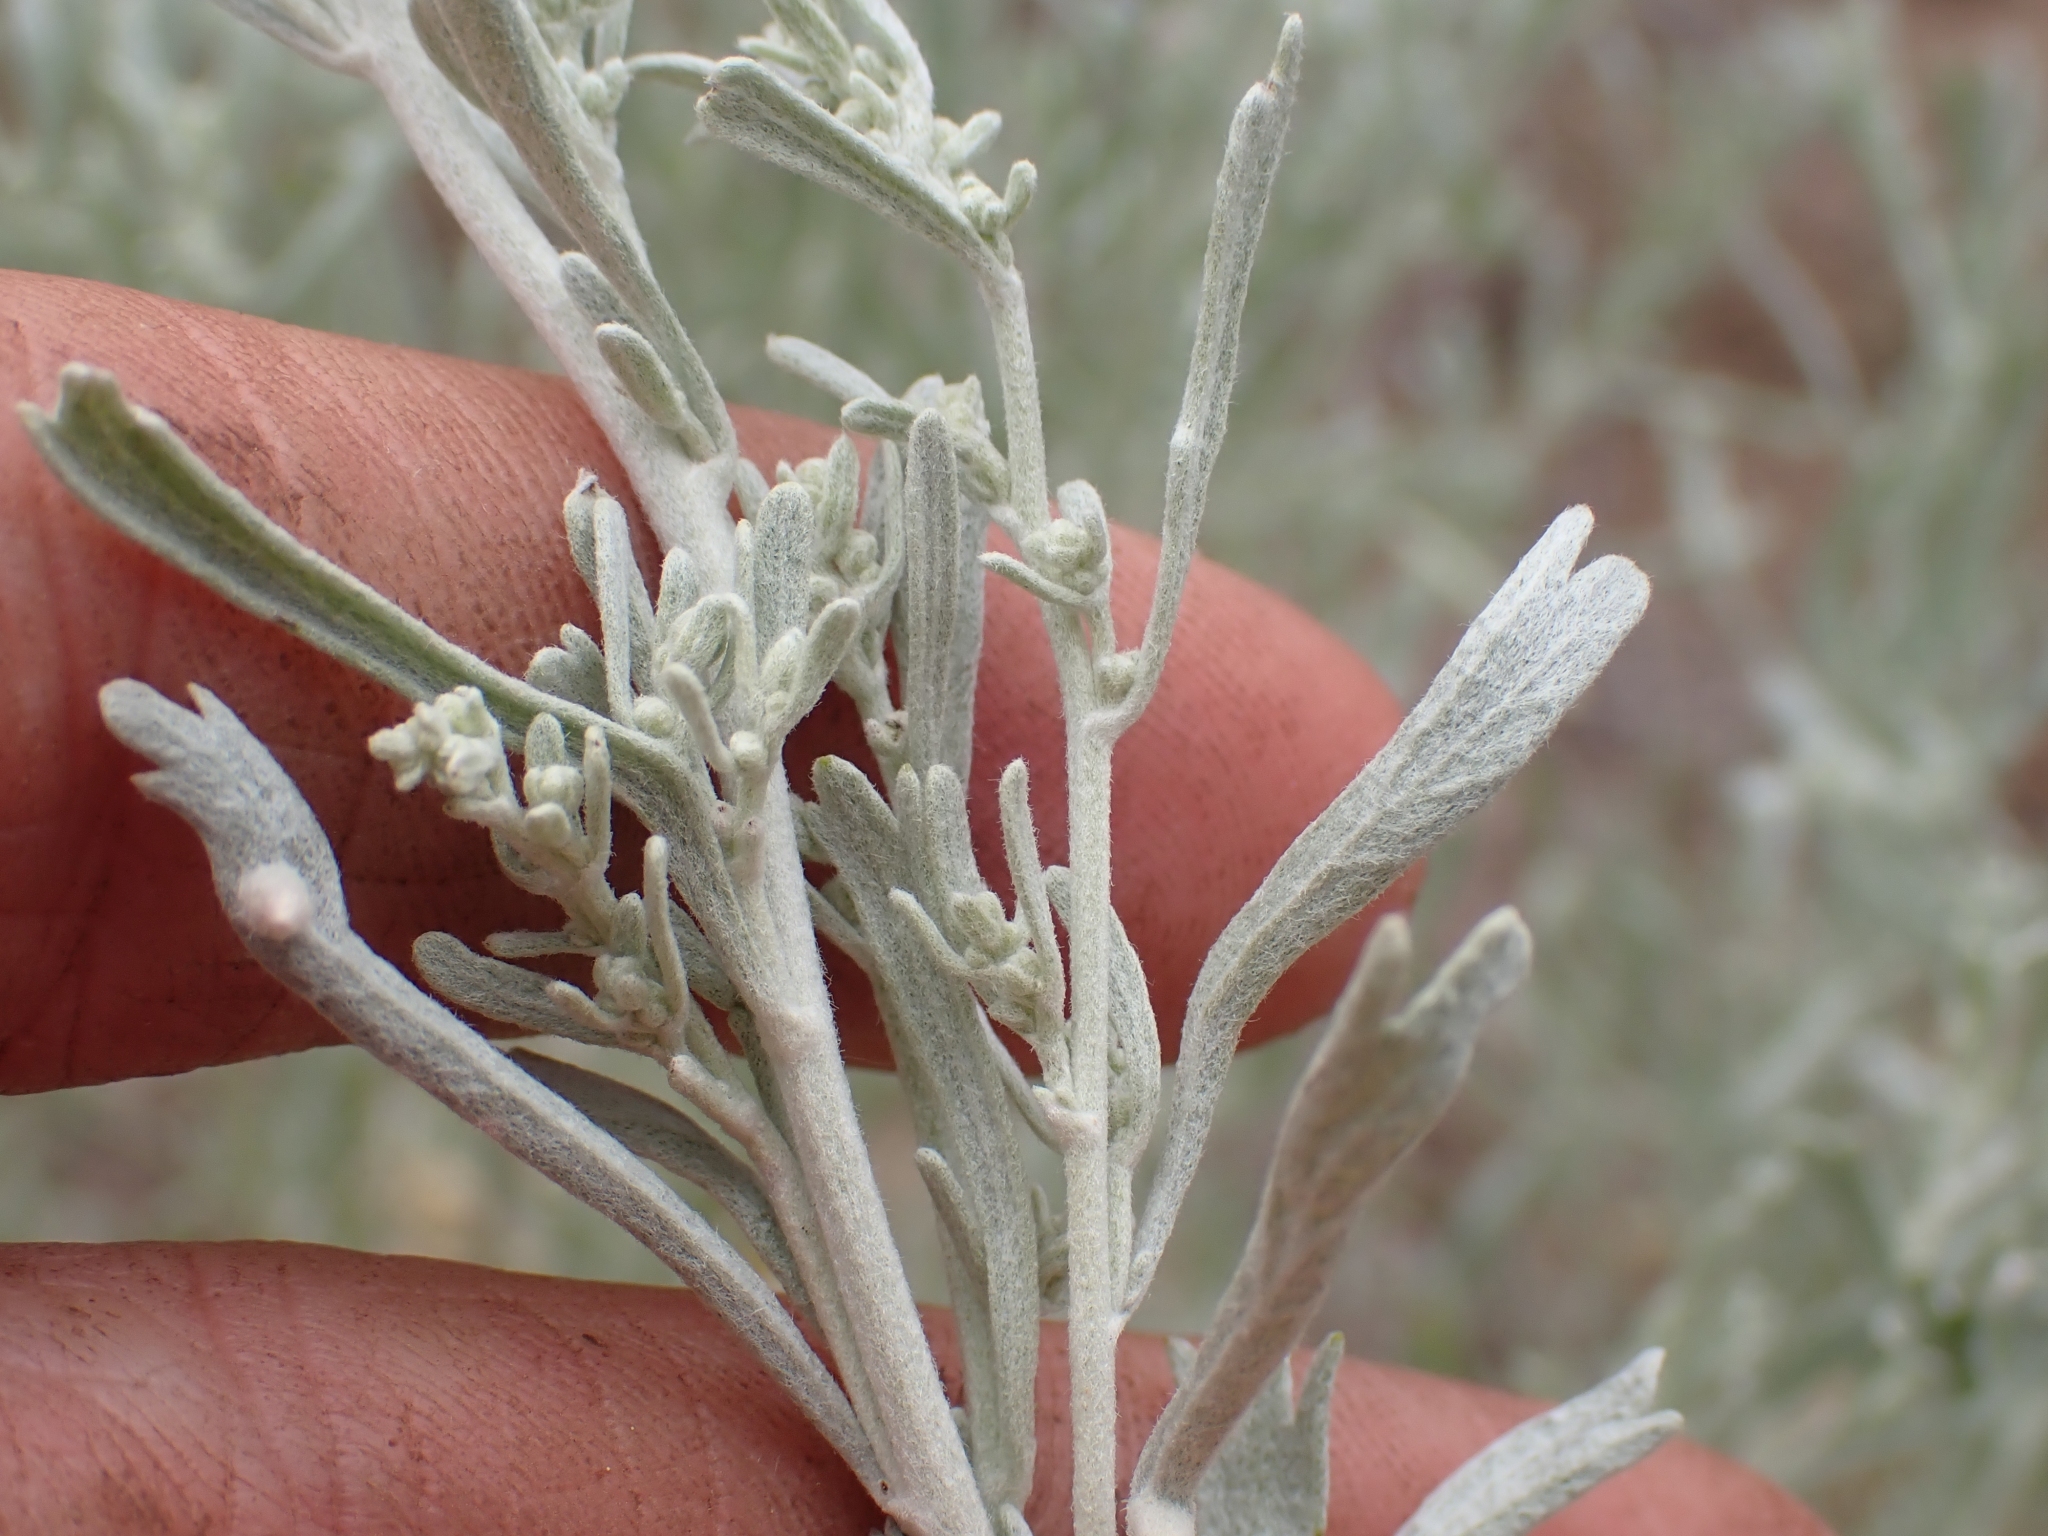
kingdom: Plantae
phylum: Tracheophyta
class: Magnoliopsida
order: Asterales
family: Asteraceae
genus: Artemisia
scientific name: Artemisia tridentata
